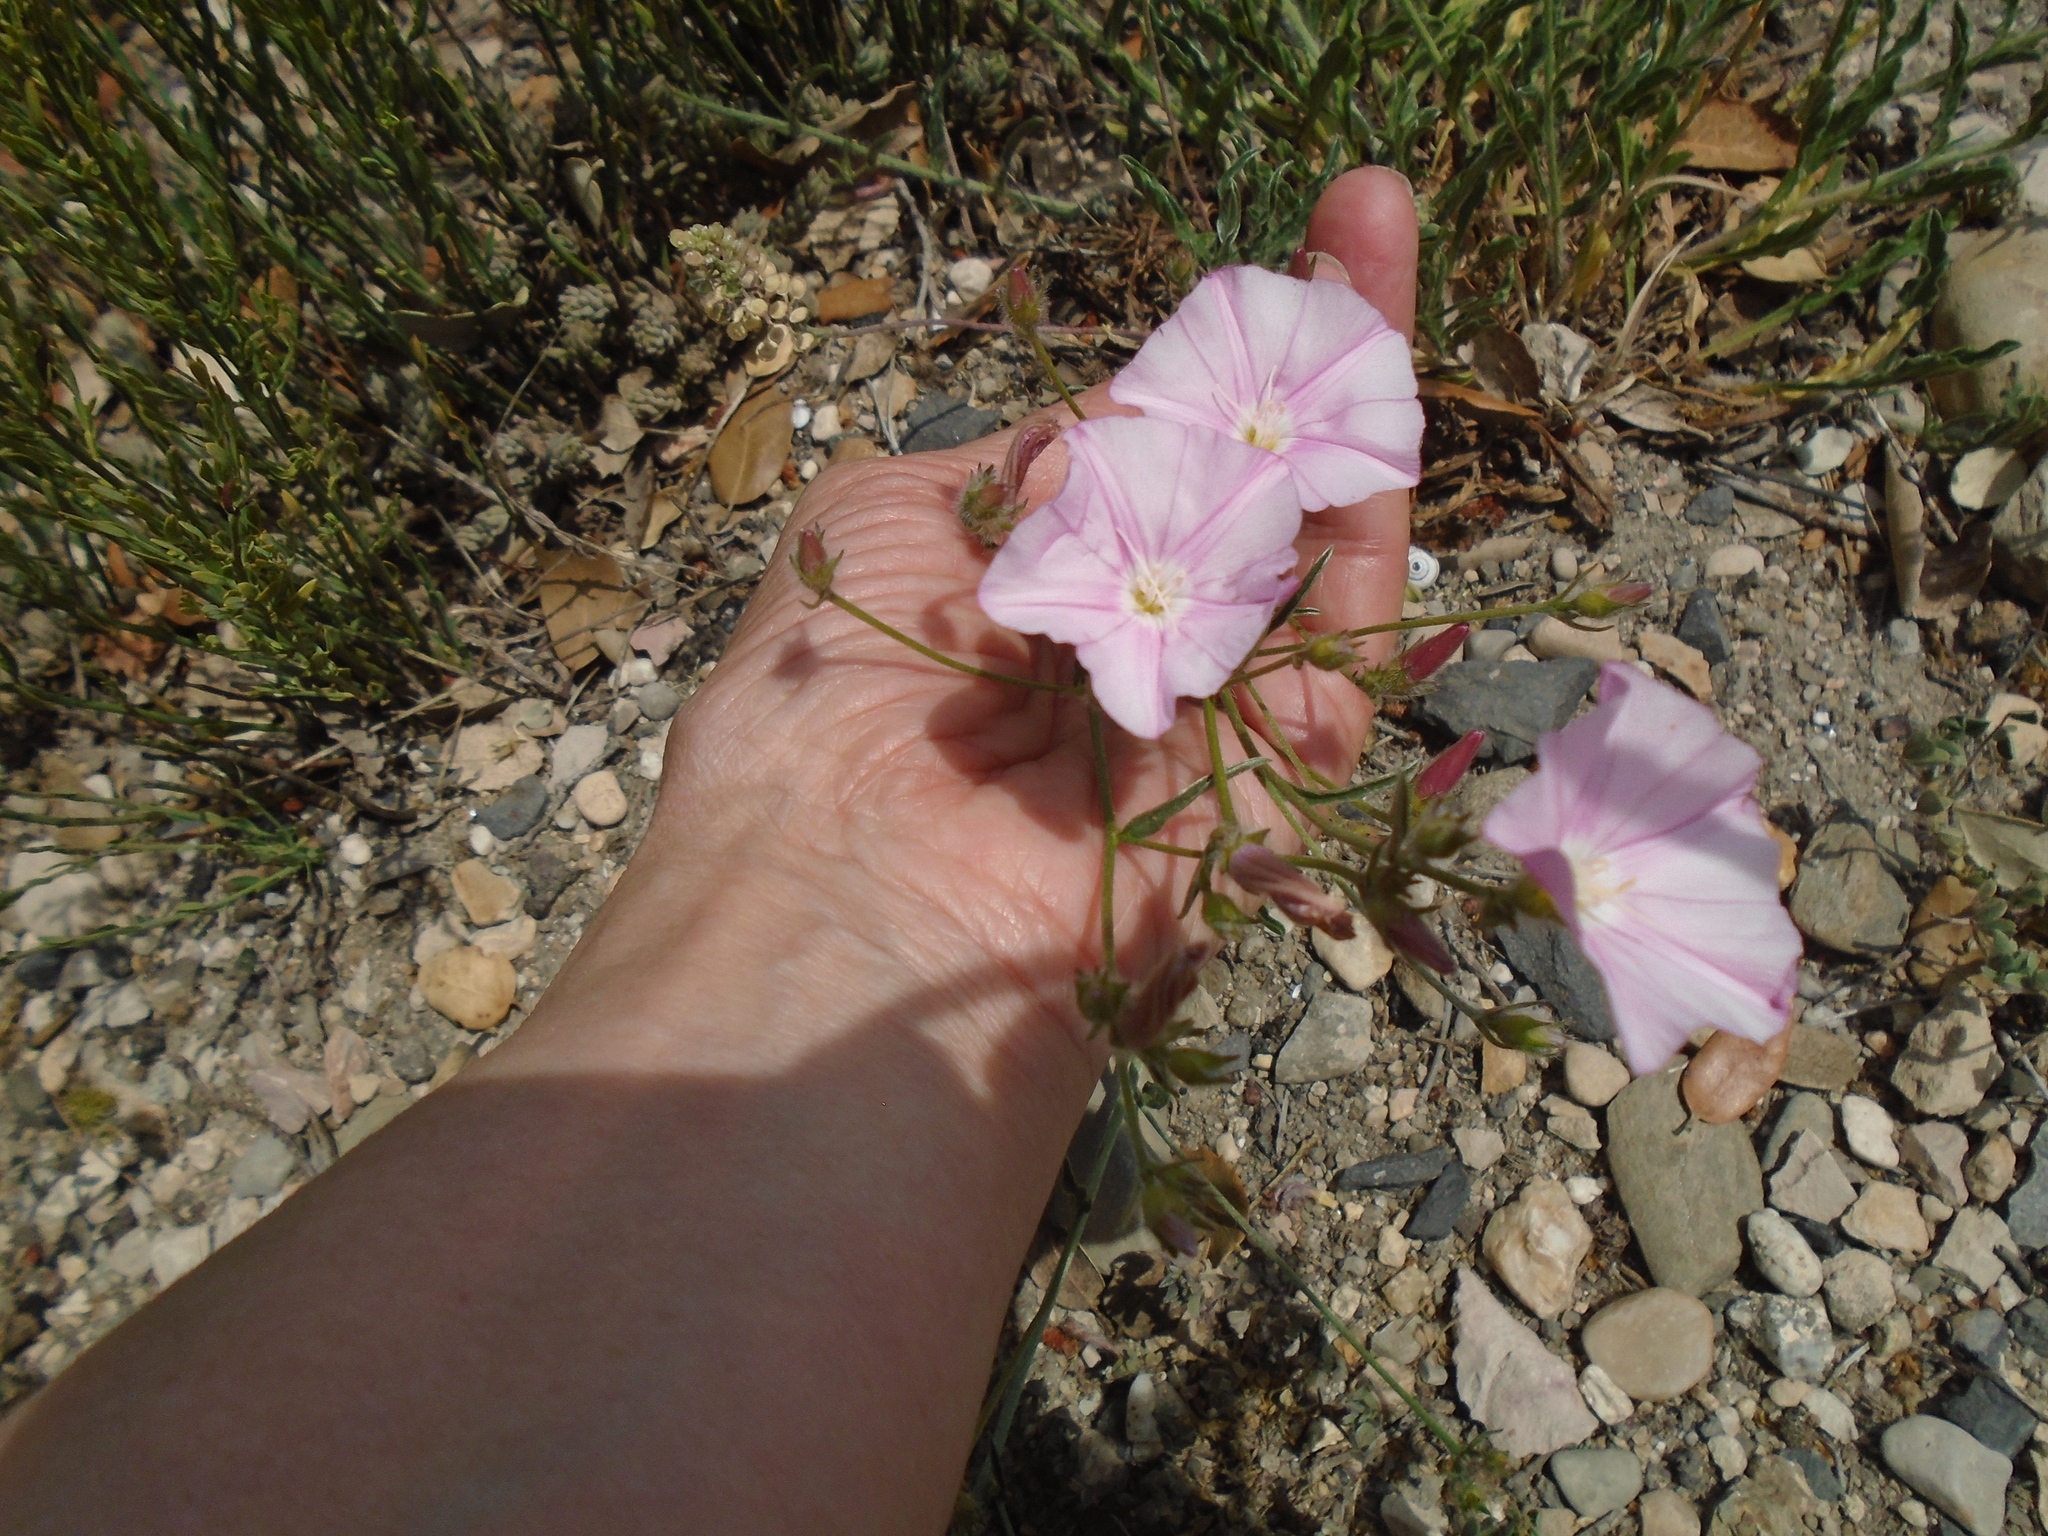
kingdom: Plantae
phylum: Tracheophyta
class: Magnoliopsida
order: Solanales
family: Convolvulaceae
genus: Convolvulus
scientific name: Convolvulus cantabrica
